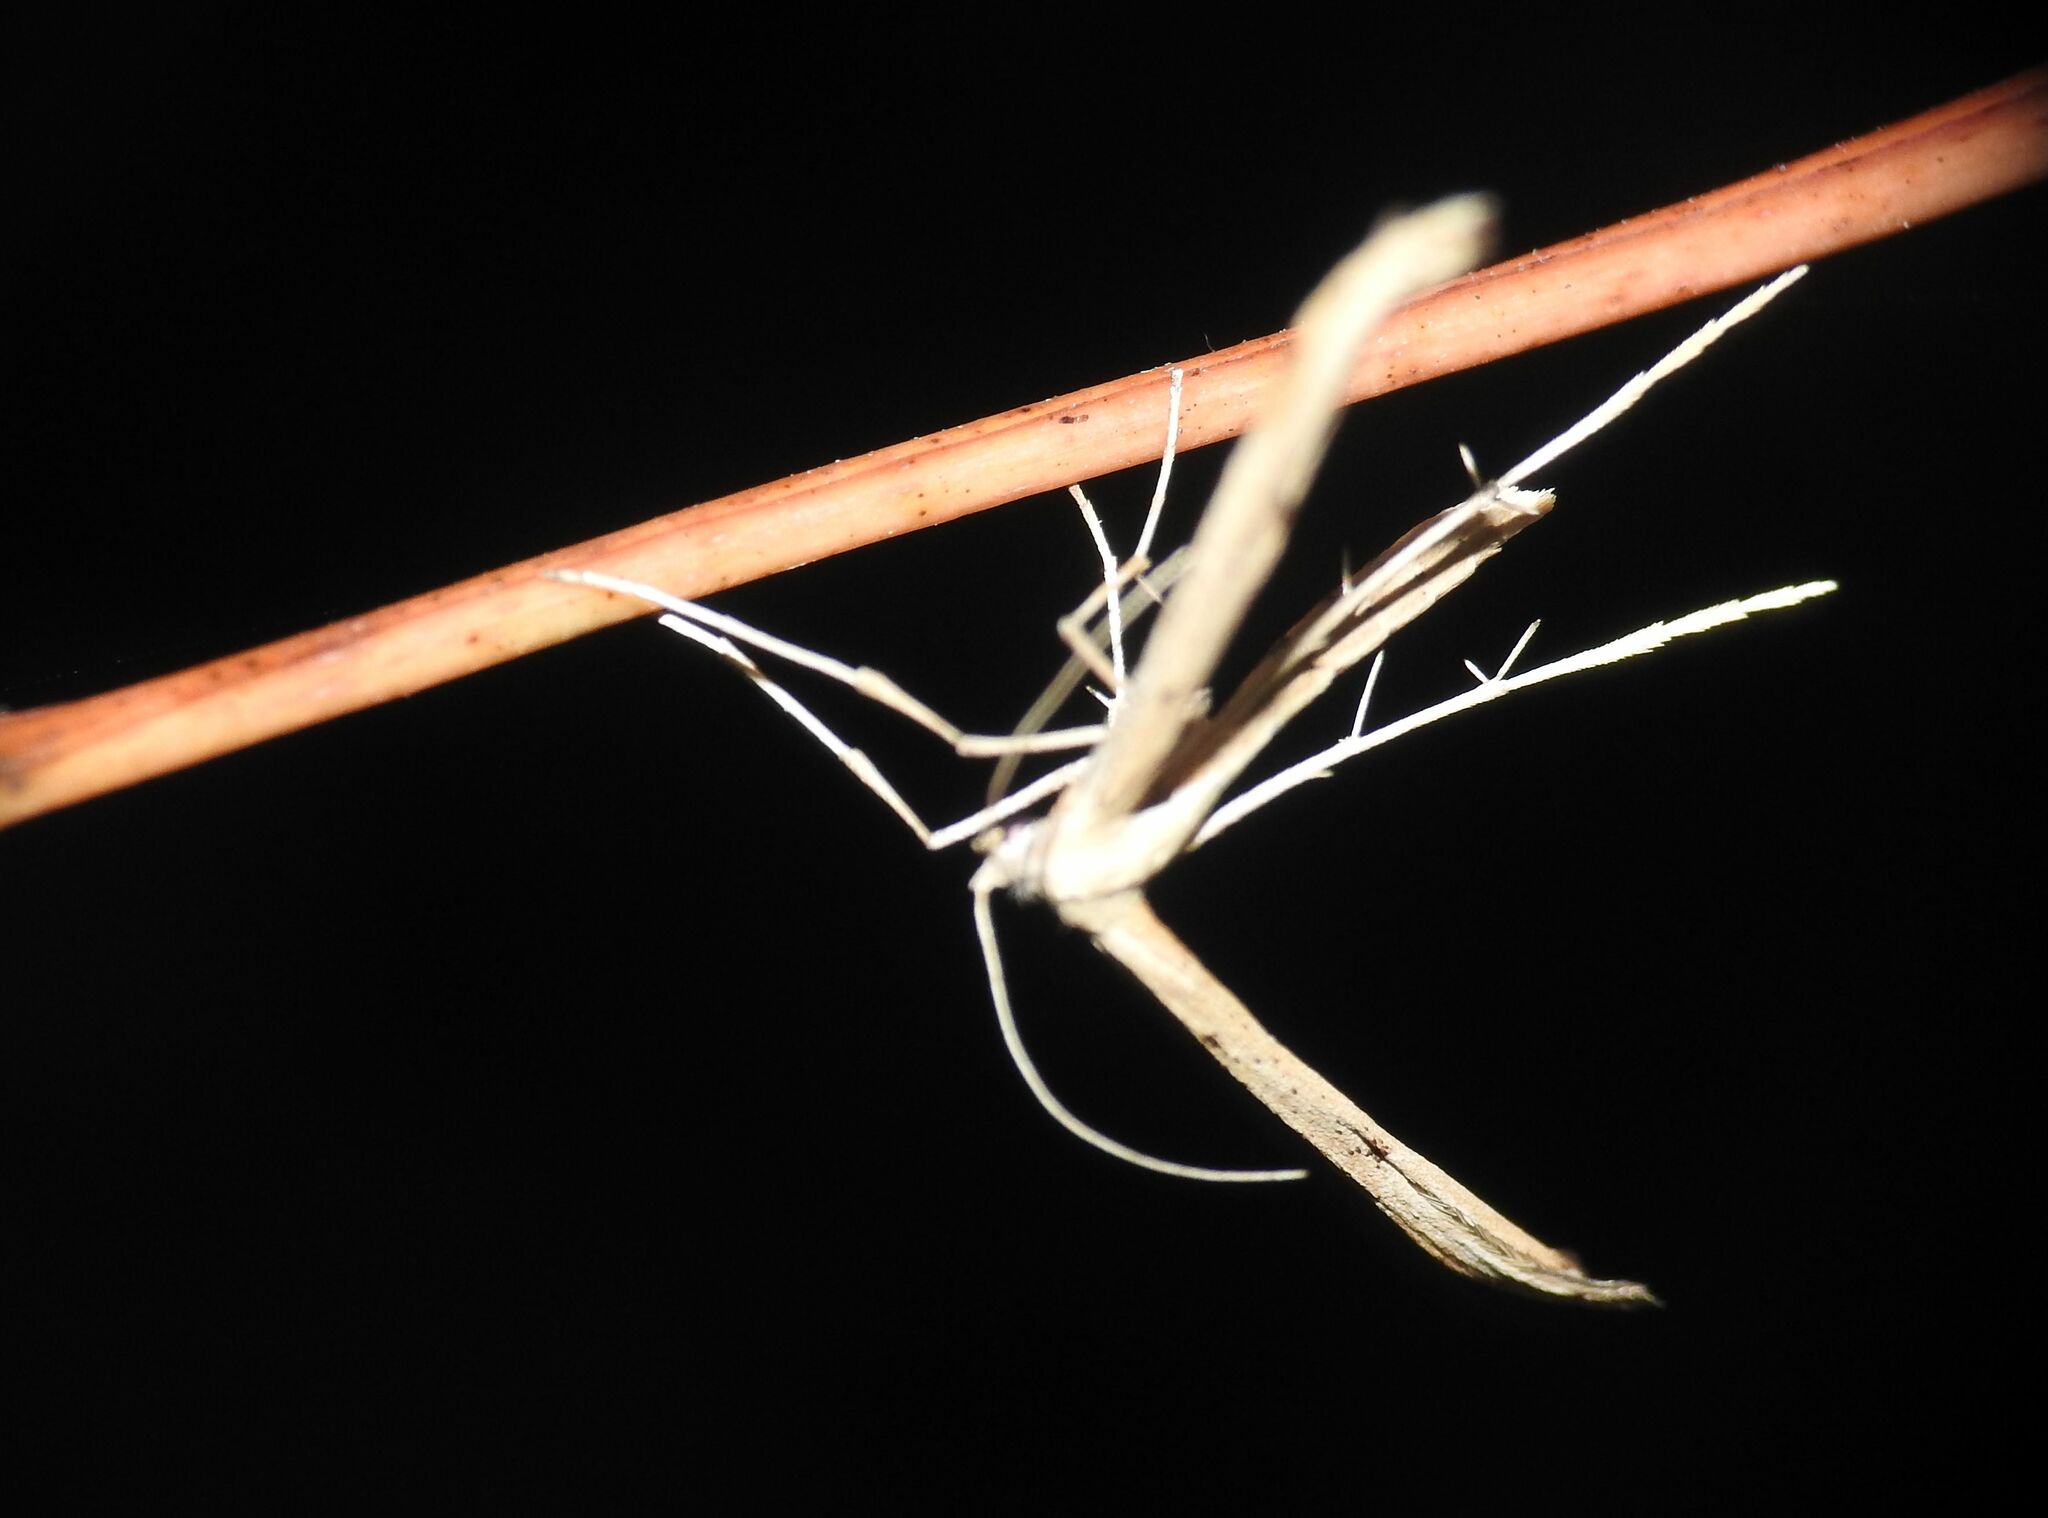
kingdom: Animalia
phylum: Arthropoda
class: Insecta
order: Lepidoptera
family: Pterophoridae
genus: Emmelina
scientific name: Emmelina monodactyla
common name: Common plume
